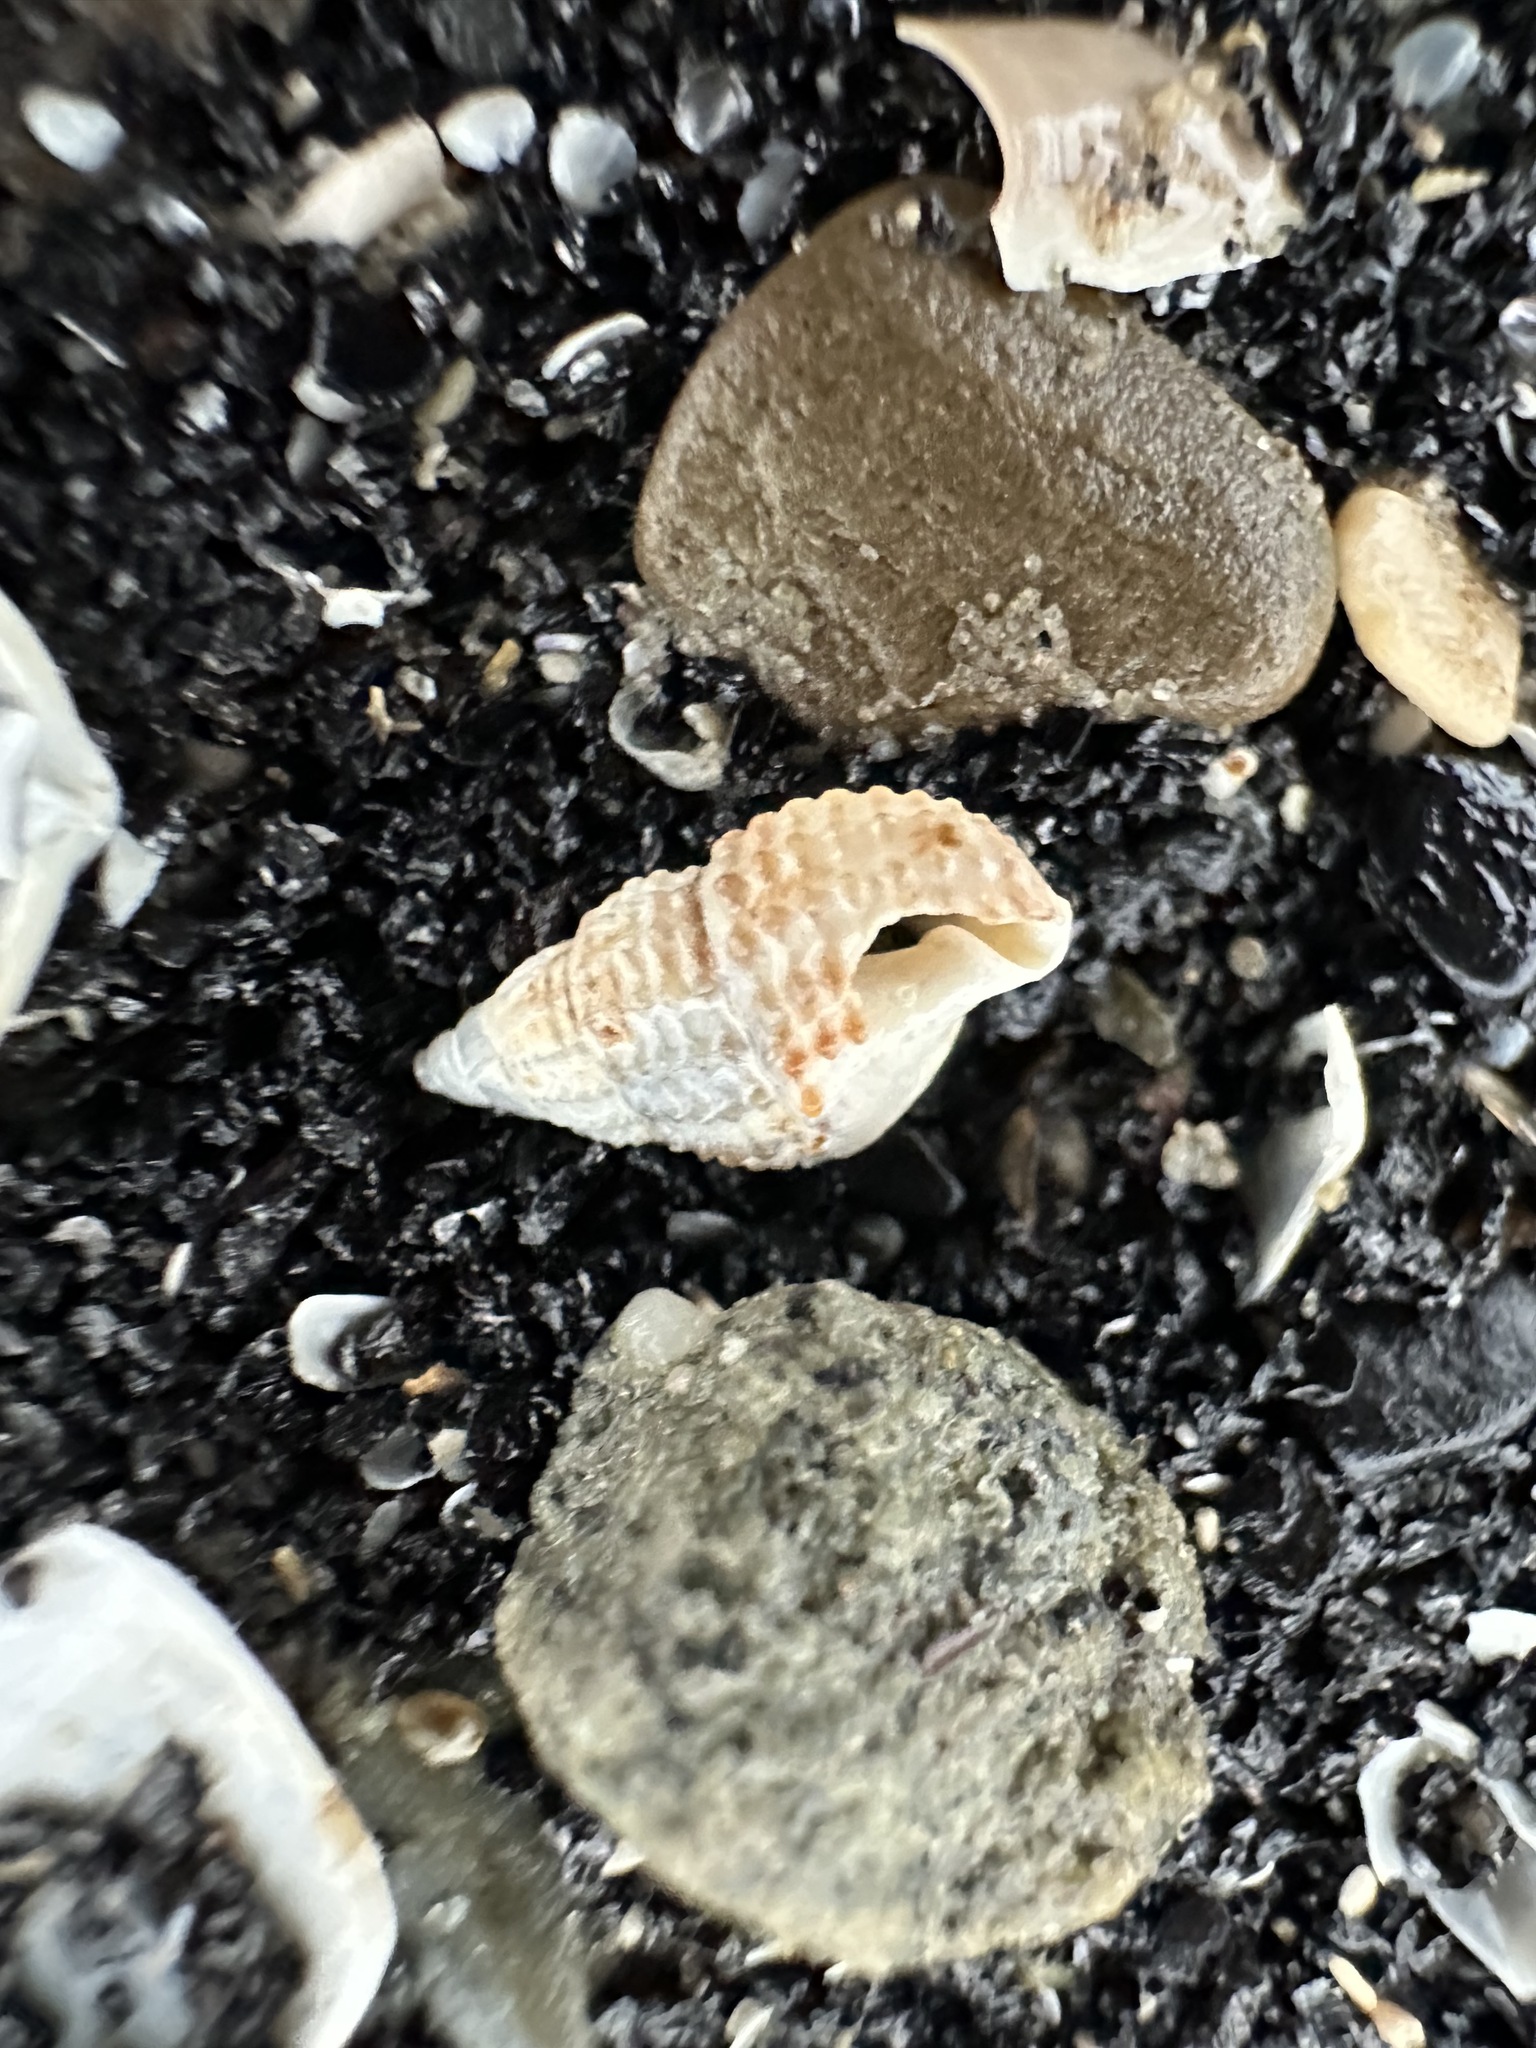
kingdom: Animalia
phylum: Mollusca
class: Gastropoda
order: Neogastropoda
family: Nassariidae
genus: Ilyanassa
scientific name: Ilyanassa trivittata
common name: Three-line mudsnail
